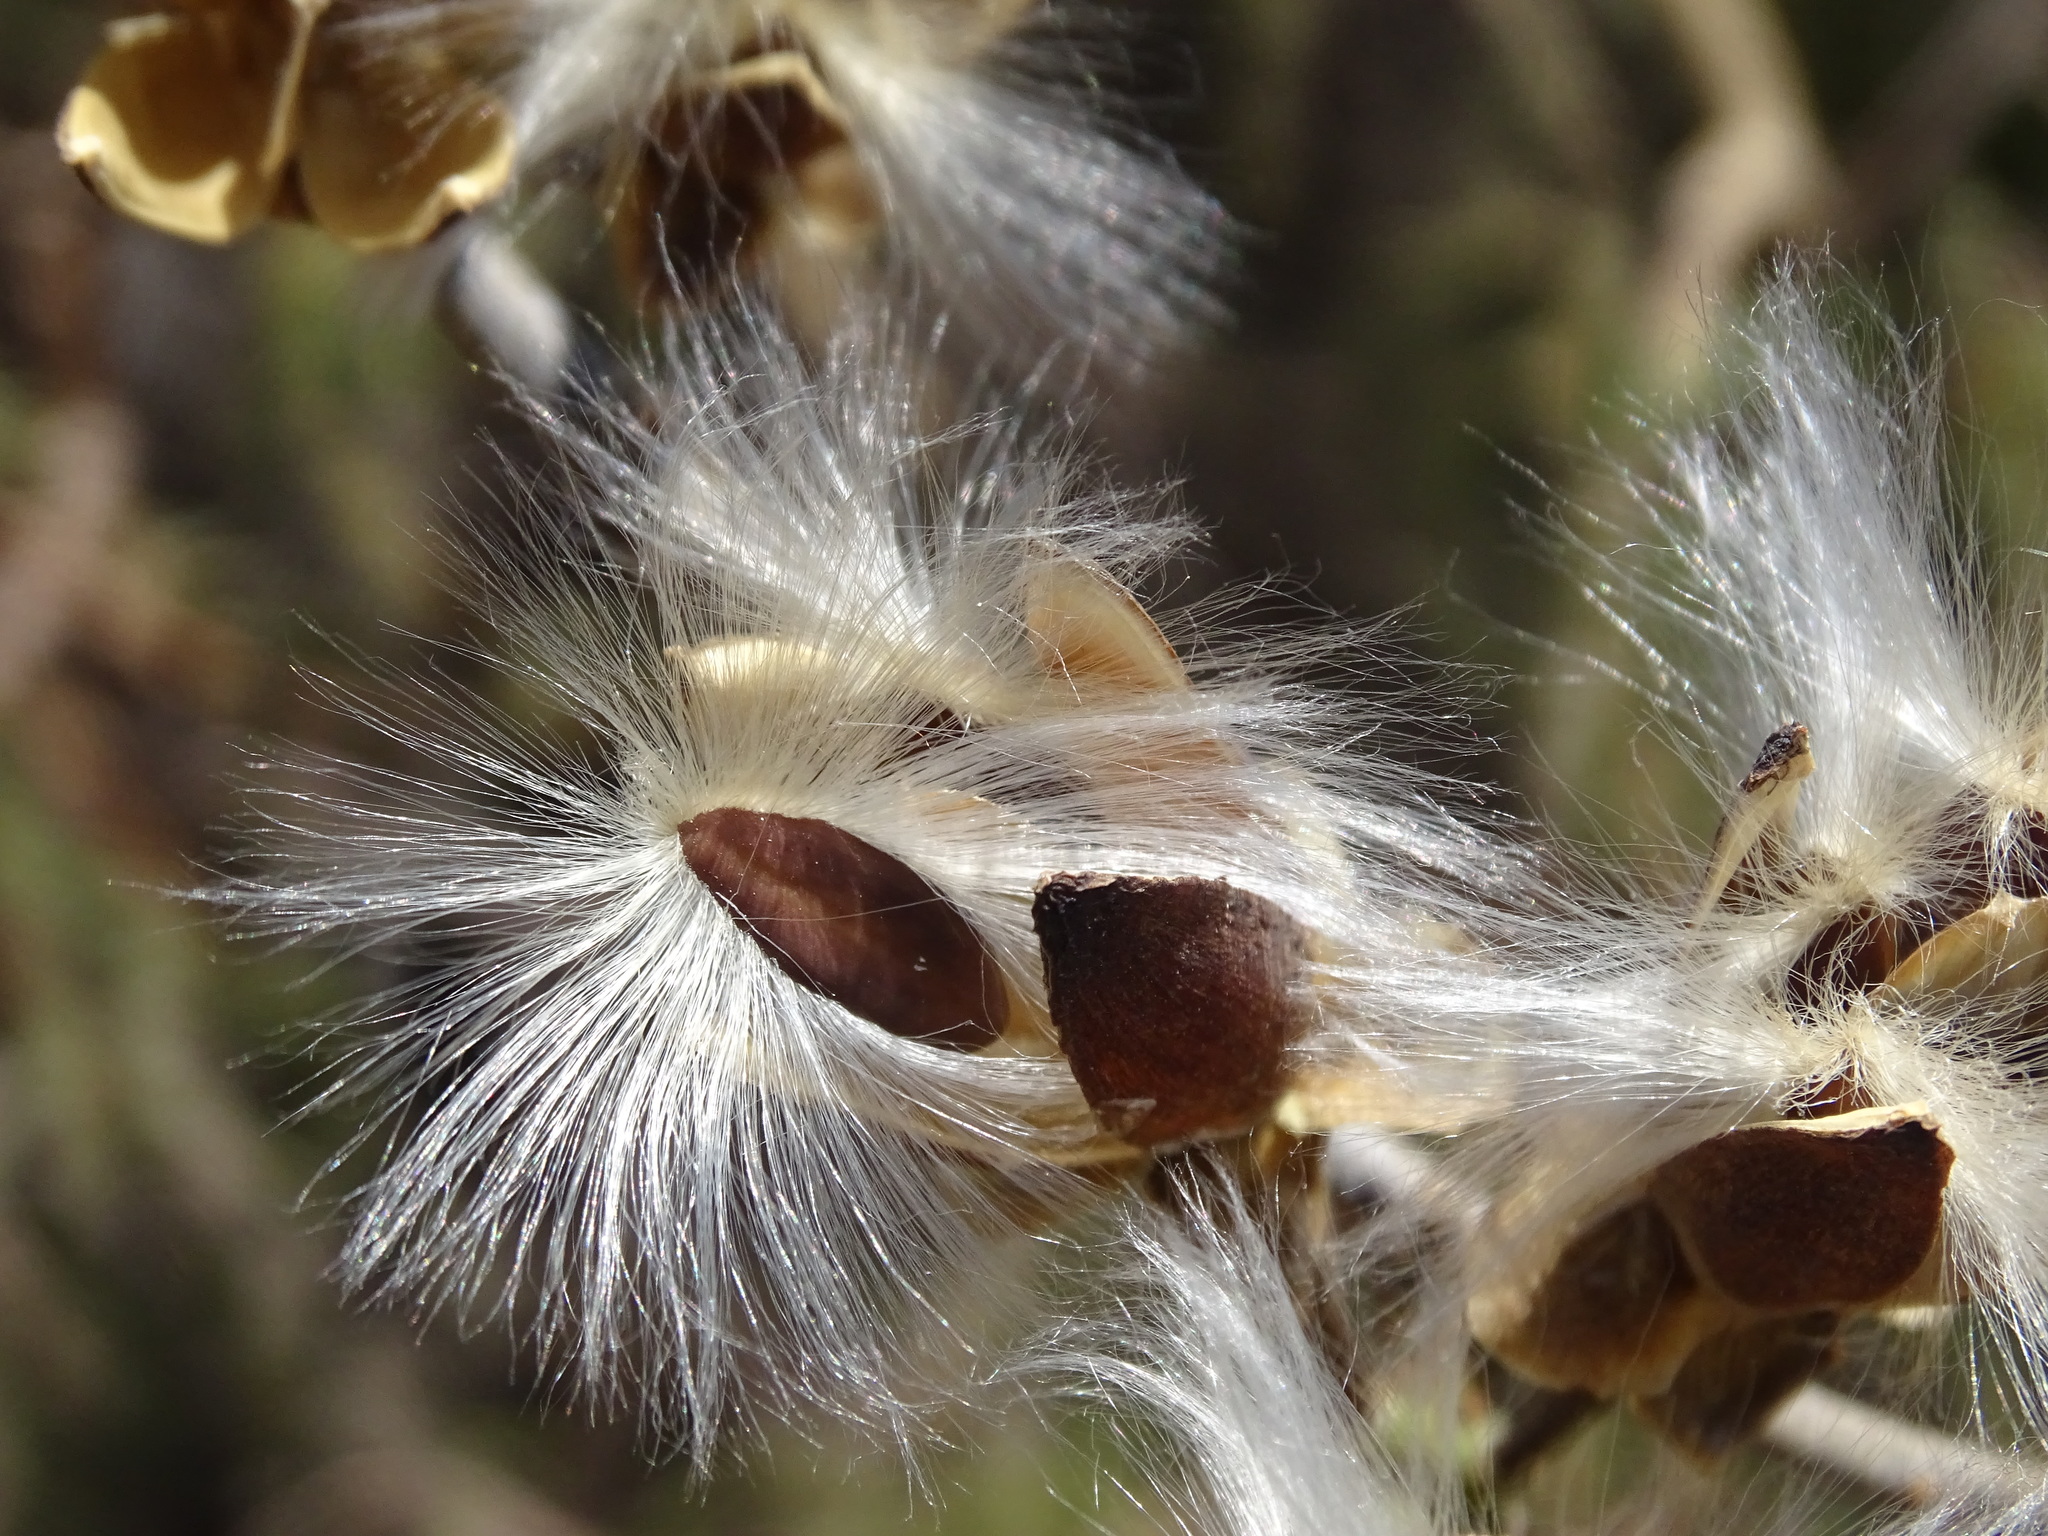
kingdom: Plantae
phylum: Tracheophyta
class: Magnoliopsida
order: Solanales
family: Convolvulaceae
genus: Ipomoea
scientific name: Ipomoea pauciflora
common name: Tree morningglory
